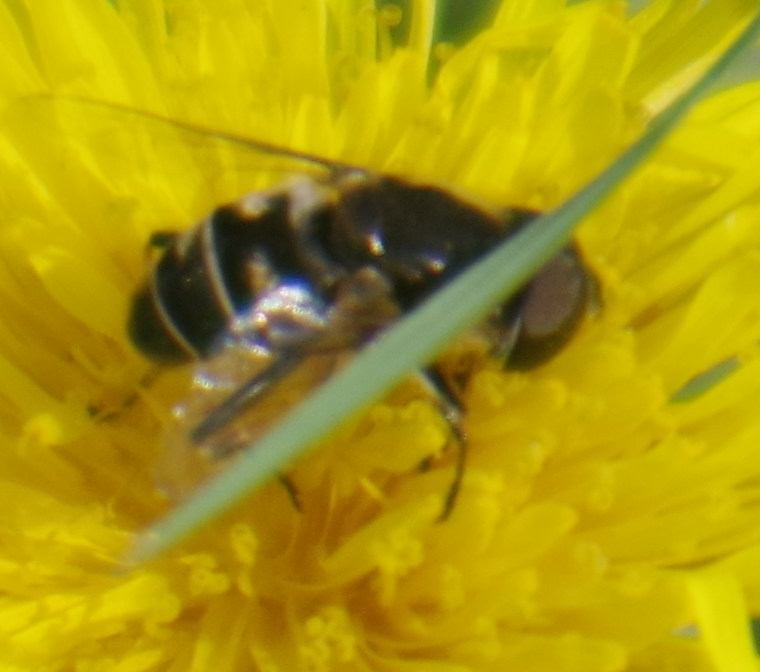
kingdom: Animalia
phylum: Arthropoda
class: Insecta
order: Diptera
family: Syrphidae
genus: Eristalis
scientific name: Eristalis dimidiata
